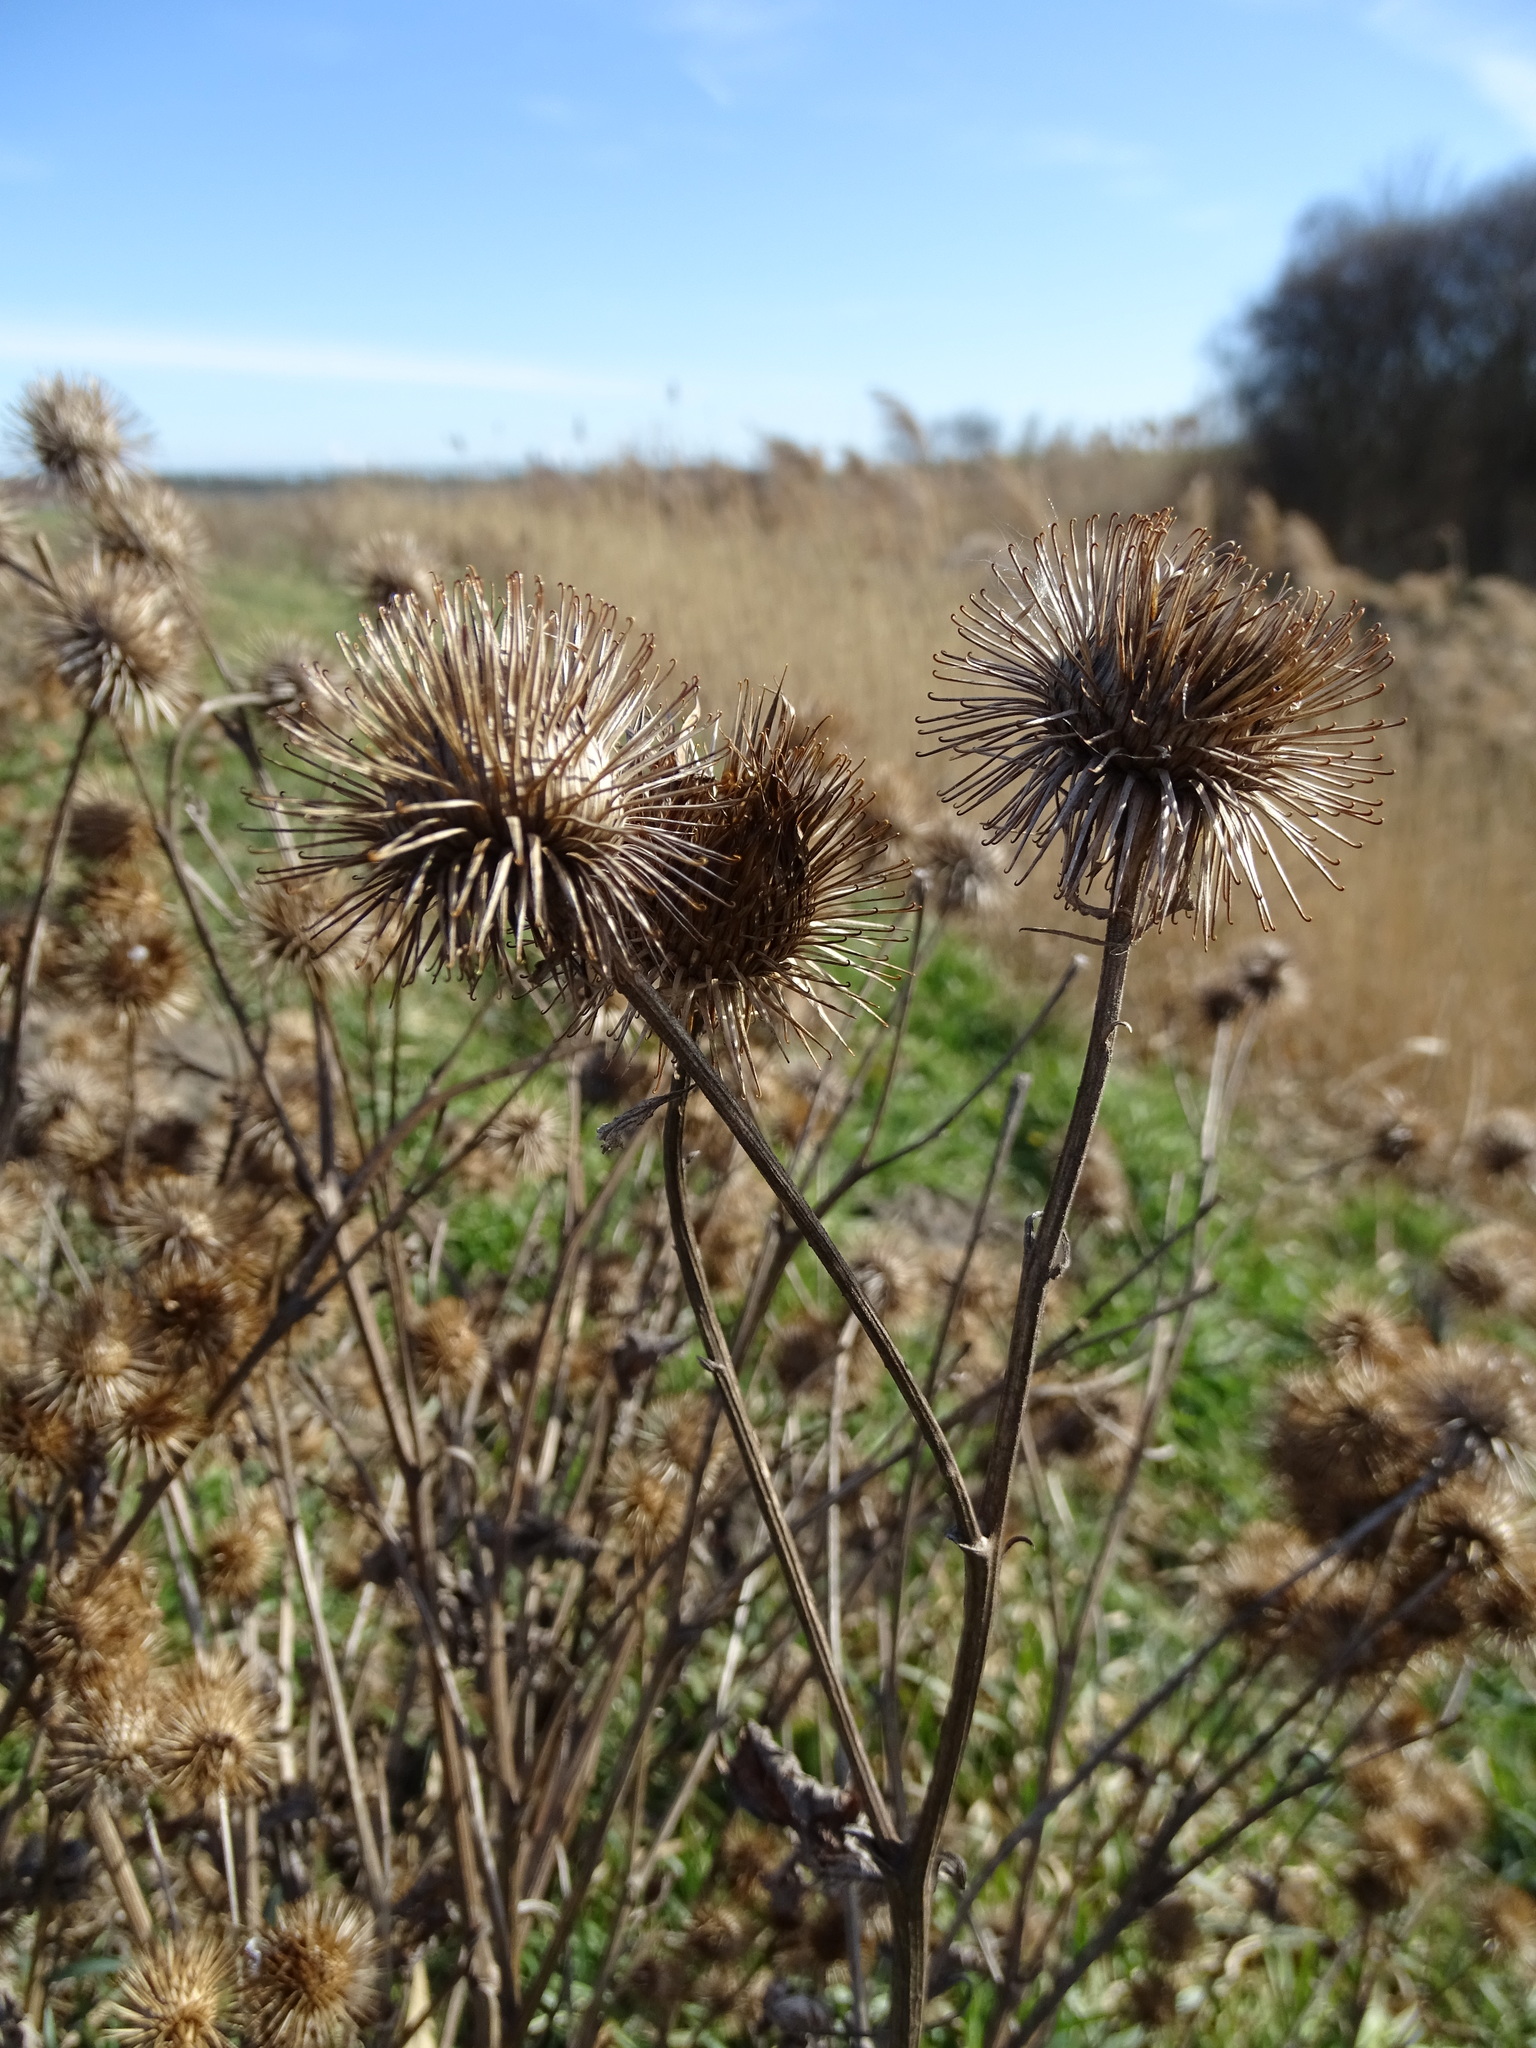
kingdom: Plantae
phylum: Tracheophyta
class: Magnoliopsida
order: Asterales
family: Asteraceae
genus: Arctium
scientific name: Arctium lappa
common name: Greater burdock
